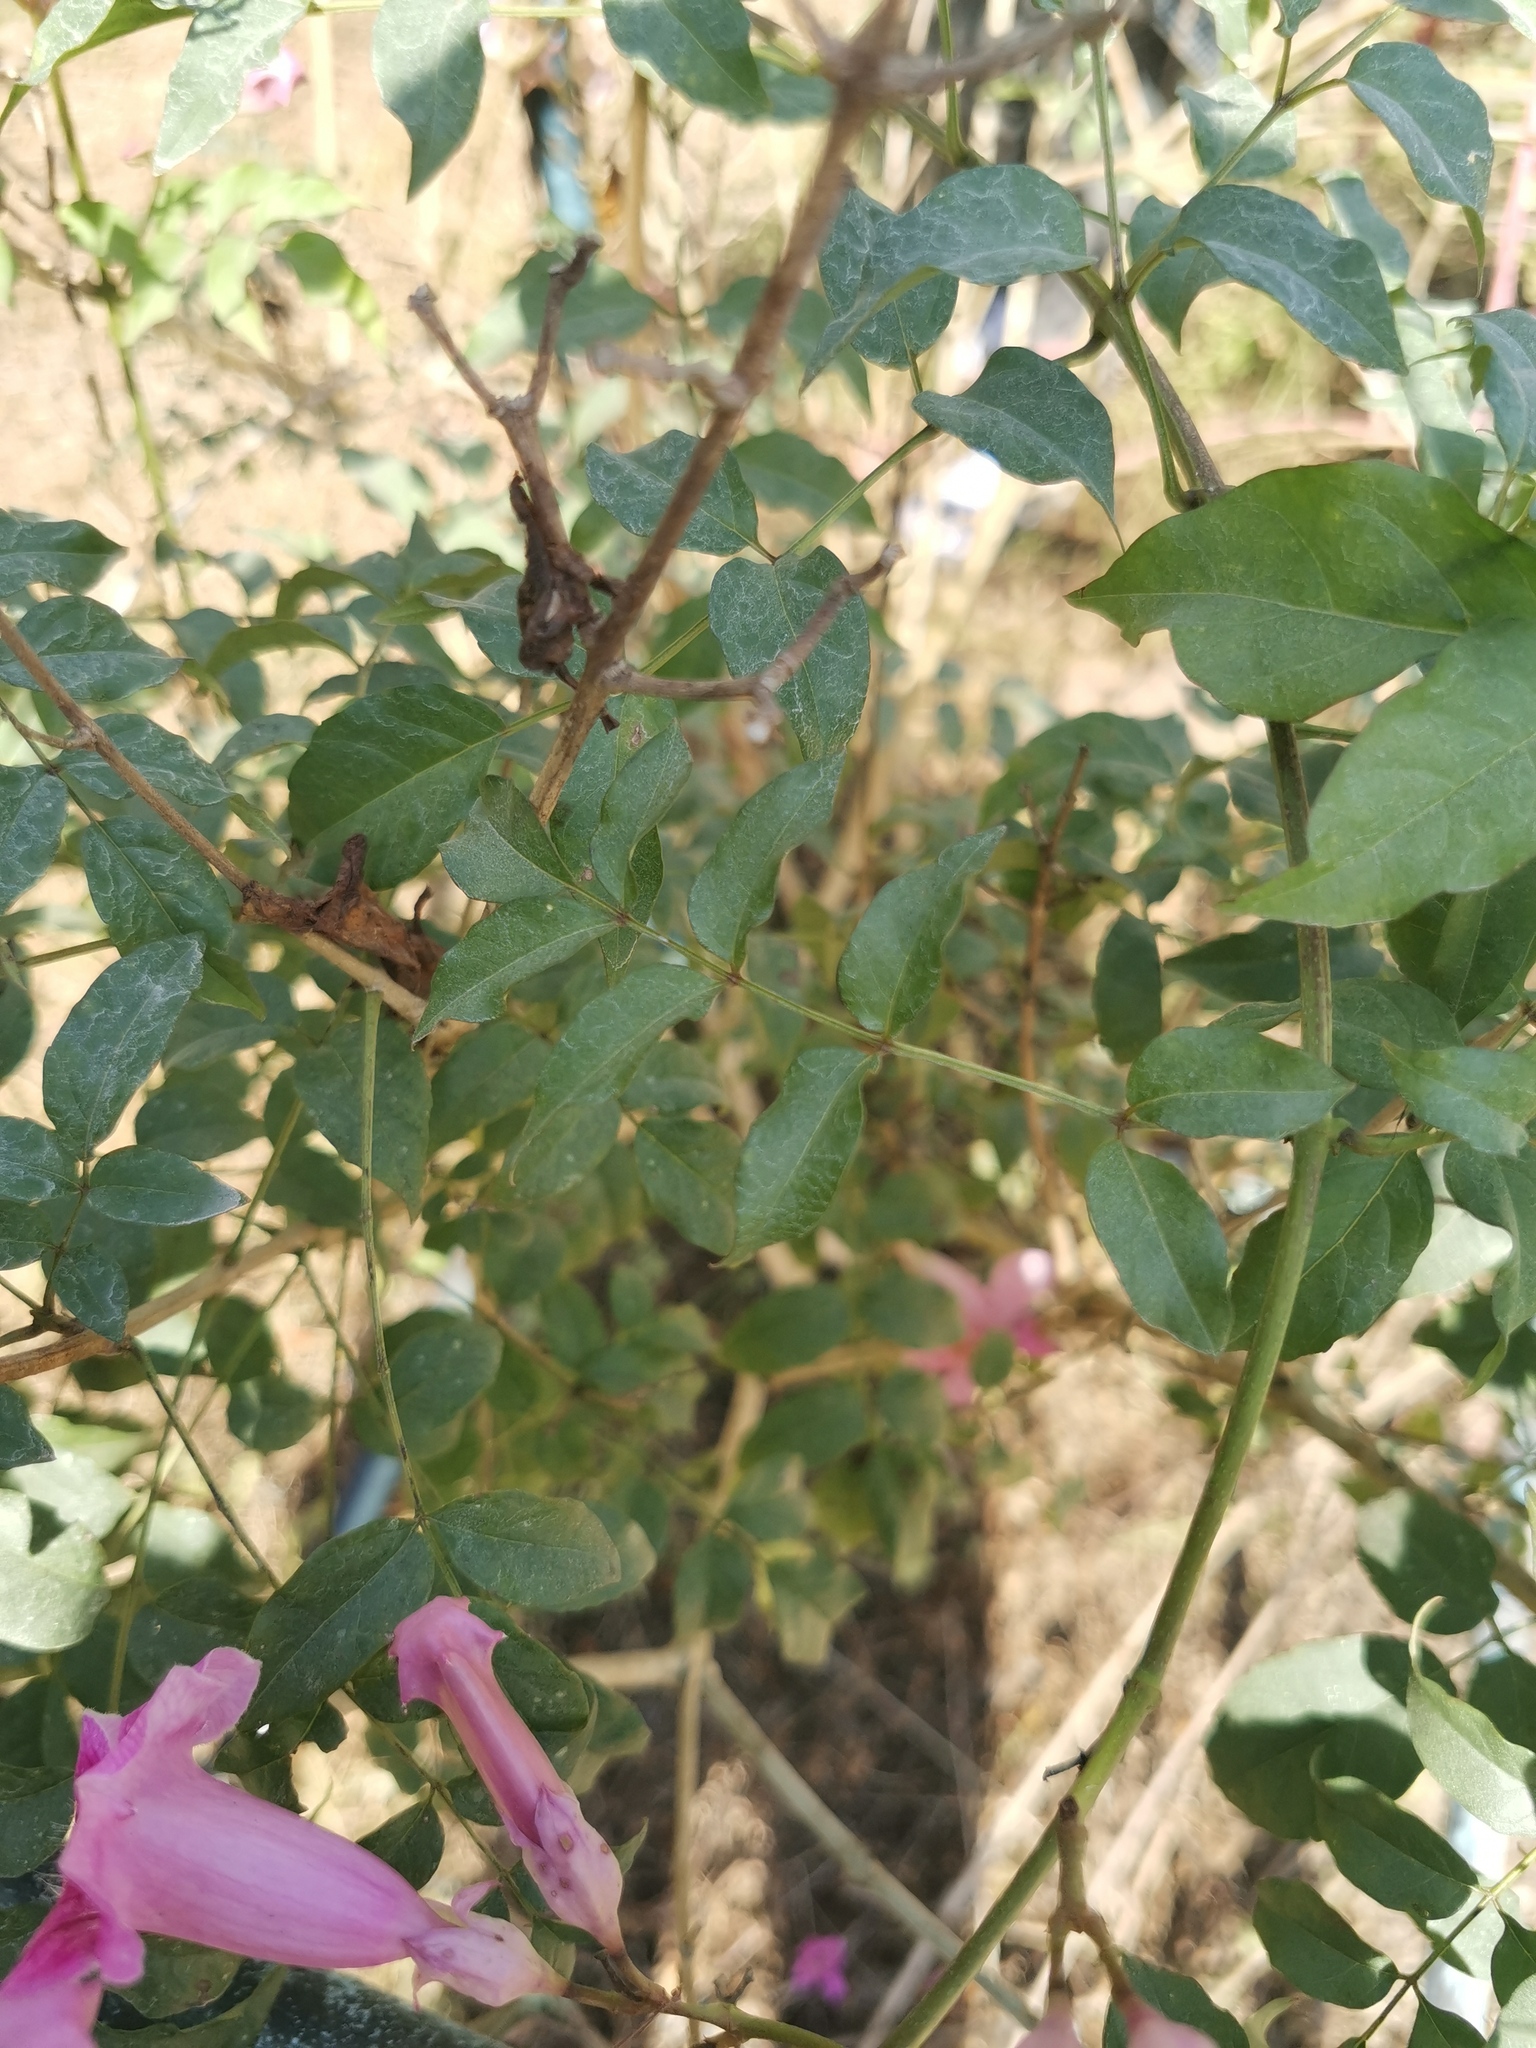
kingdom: Plantae
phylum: Tracheophyta
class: Magnoliopsida
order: Lamiales
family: Bignoniaceae
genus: Podranea
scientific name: Podranea ricasoliana
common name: Zimbabwe creeper
